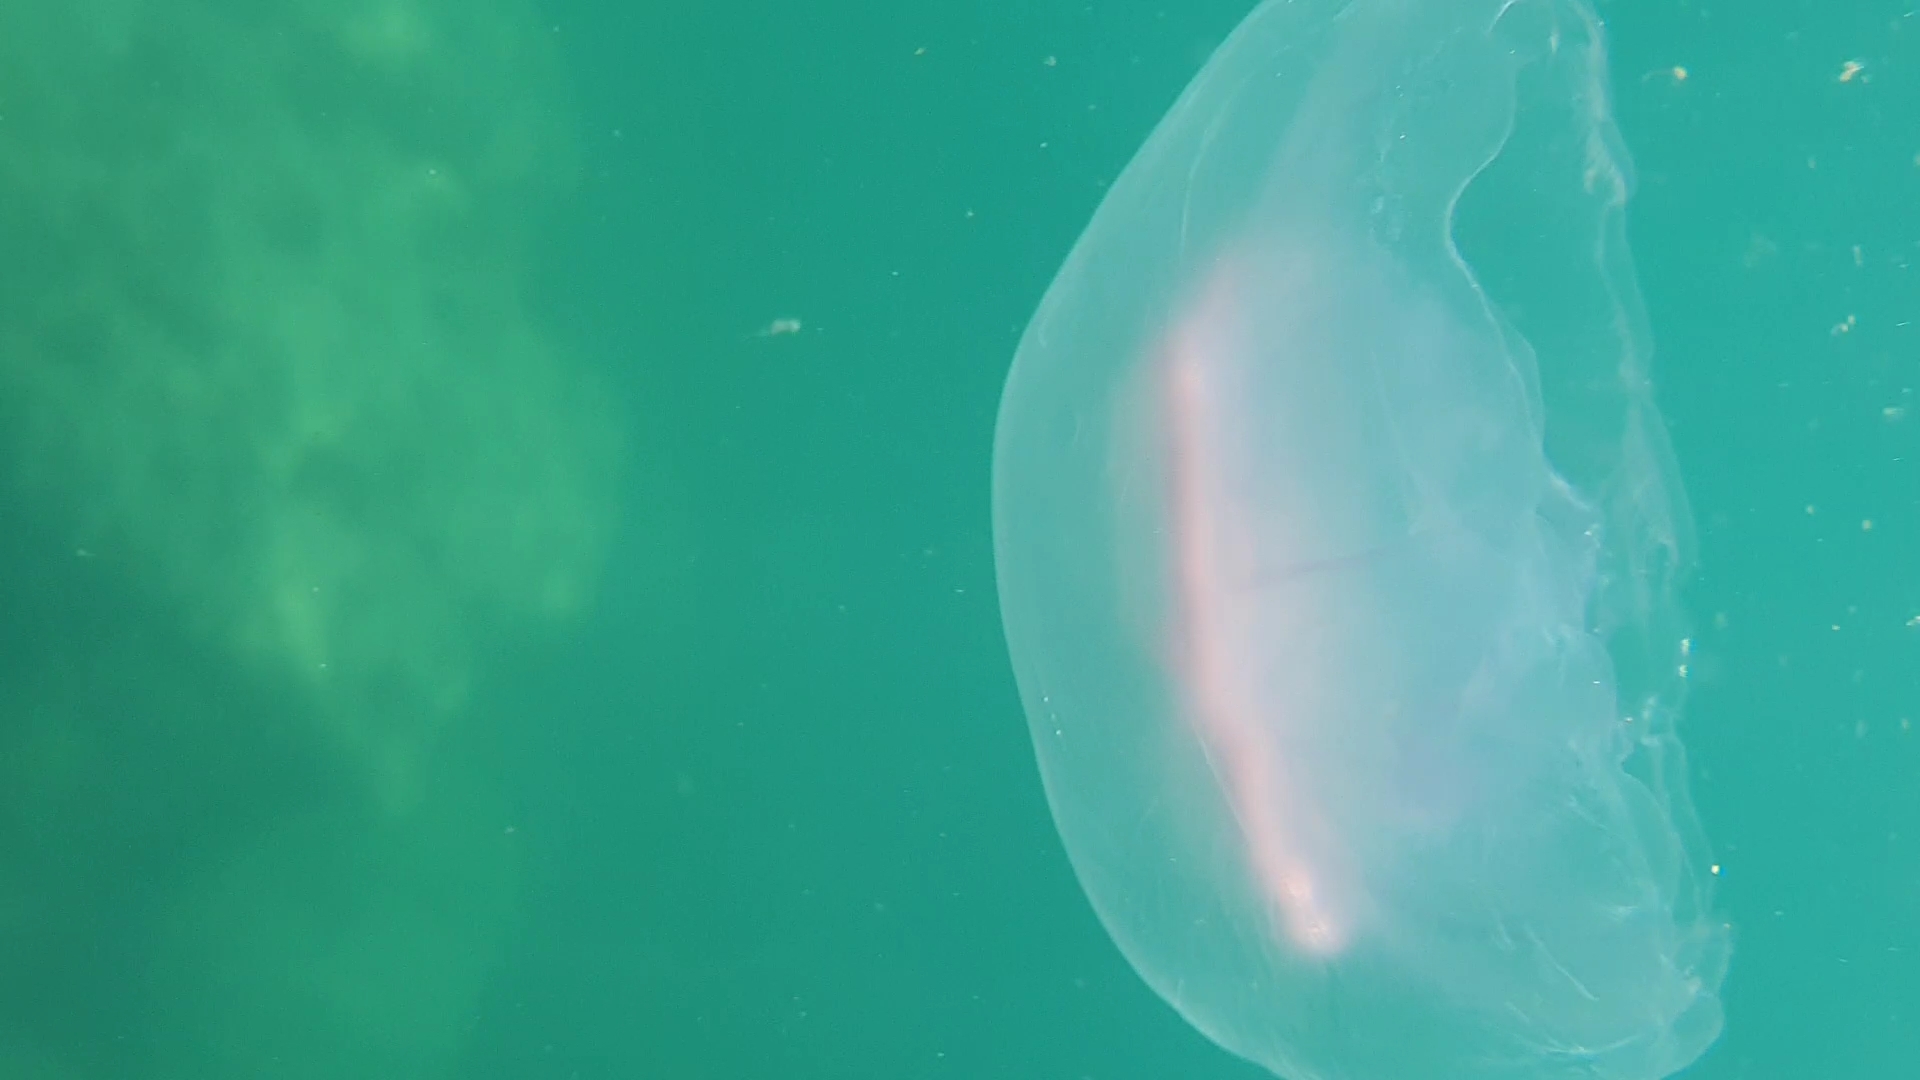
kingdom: Animalia
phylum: Cnidaria
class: Scyphozoa
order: Semaeostomeae
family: Ulmaridae
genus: Aurelia
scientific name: Aurelia aurita
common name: Moon jellyfish
